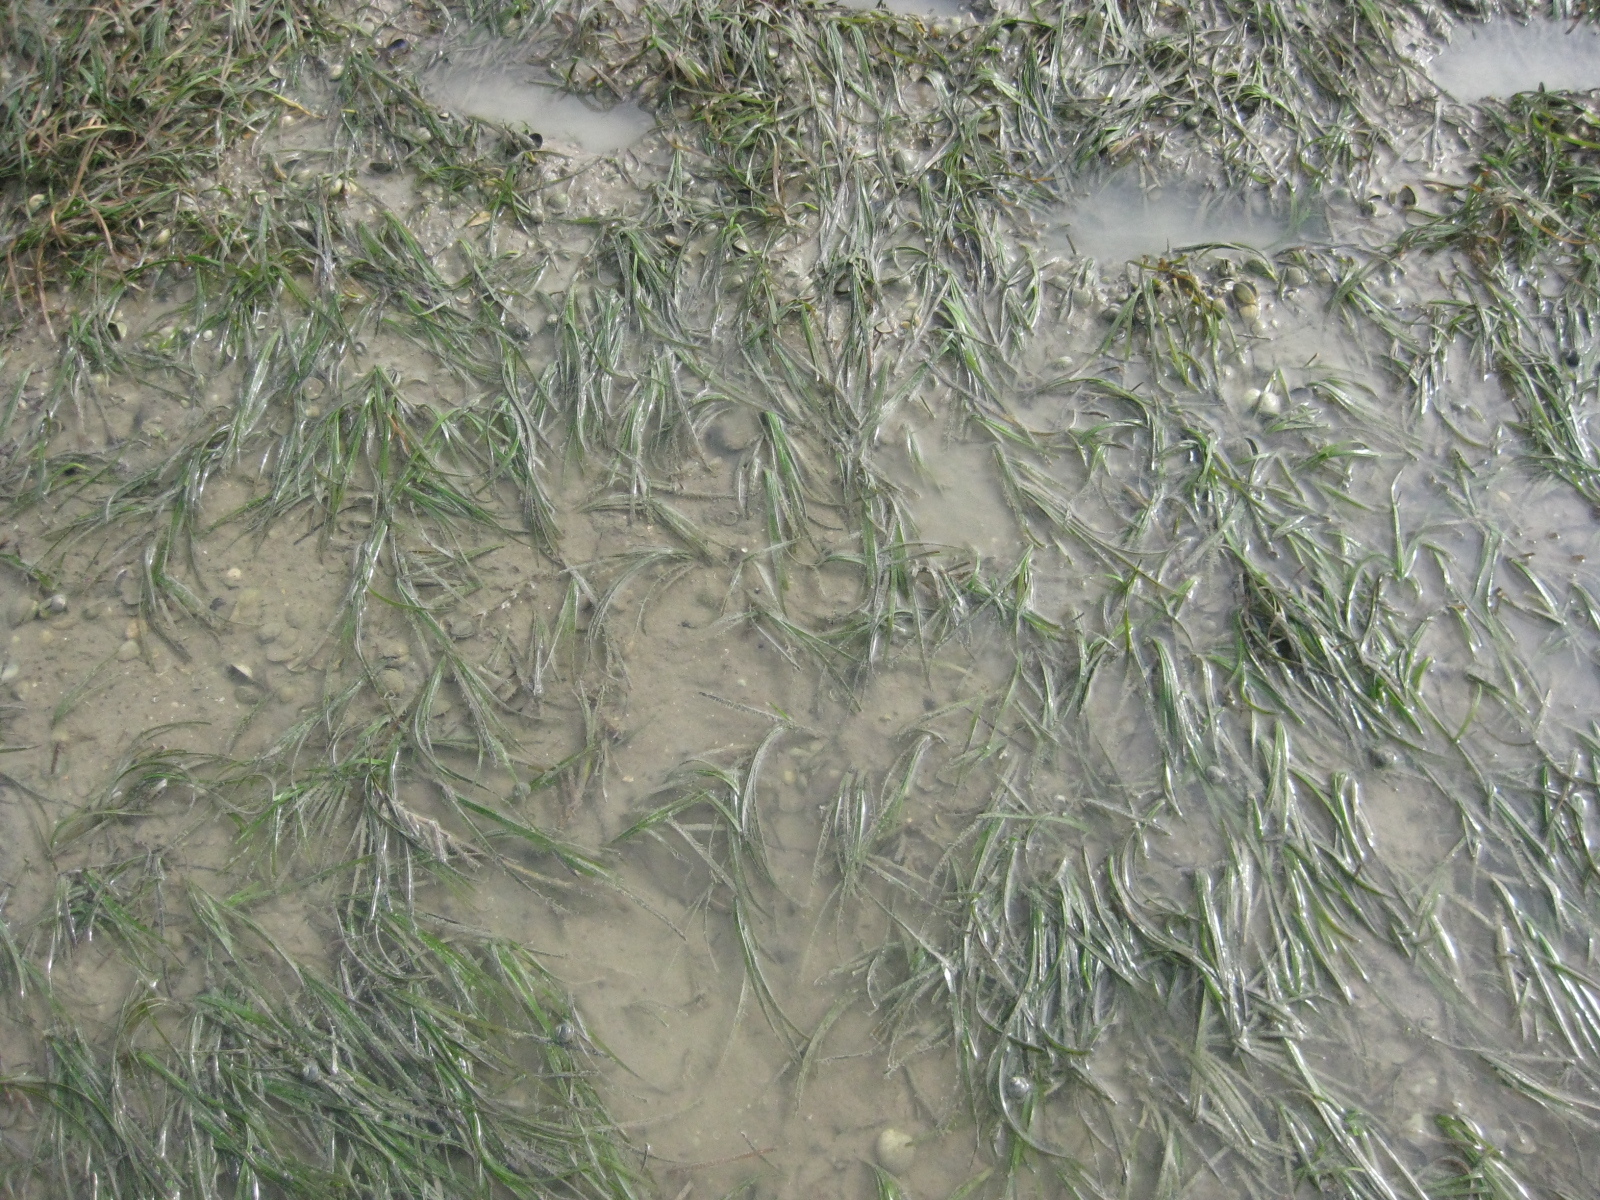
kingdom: Plantae
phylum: Tracheophyta
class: Liliopsida
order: Alismatales
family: Zosteraceae
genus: Zostera
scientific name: Zostera novazelandica
